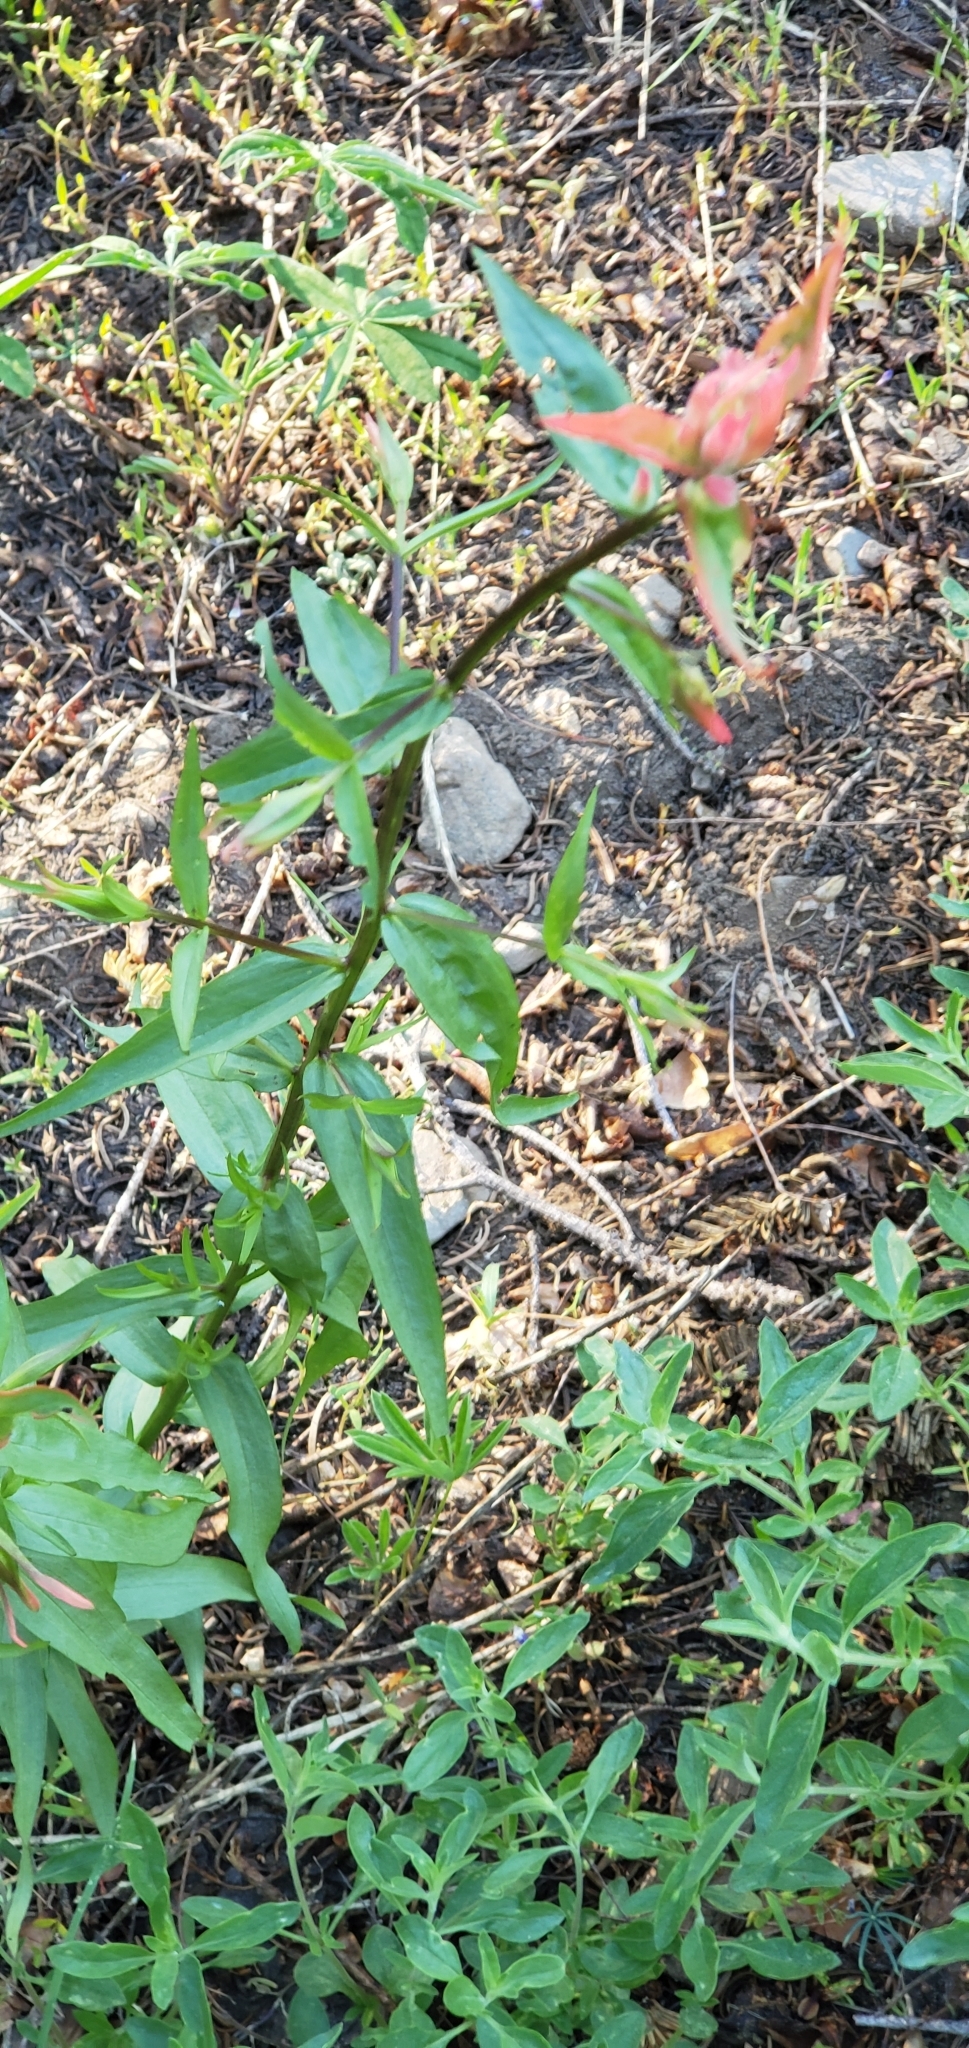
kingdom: Plantae
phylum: Tracheophyta
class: Magnoliopsida
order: Lamiales
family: Orobanchaceae
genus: Castilleja
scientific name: Castilleja miniata
